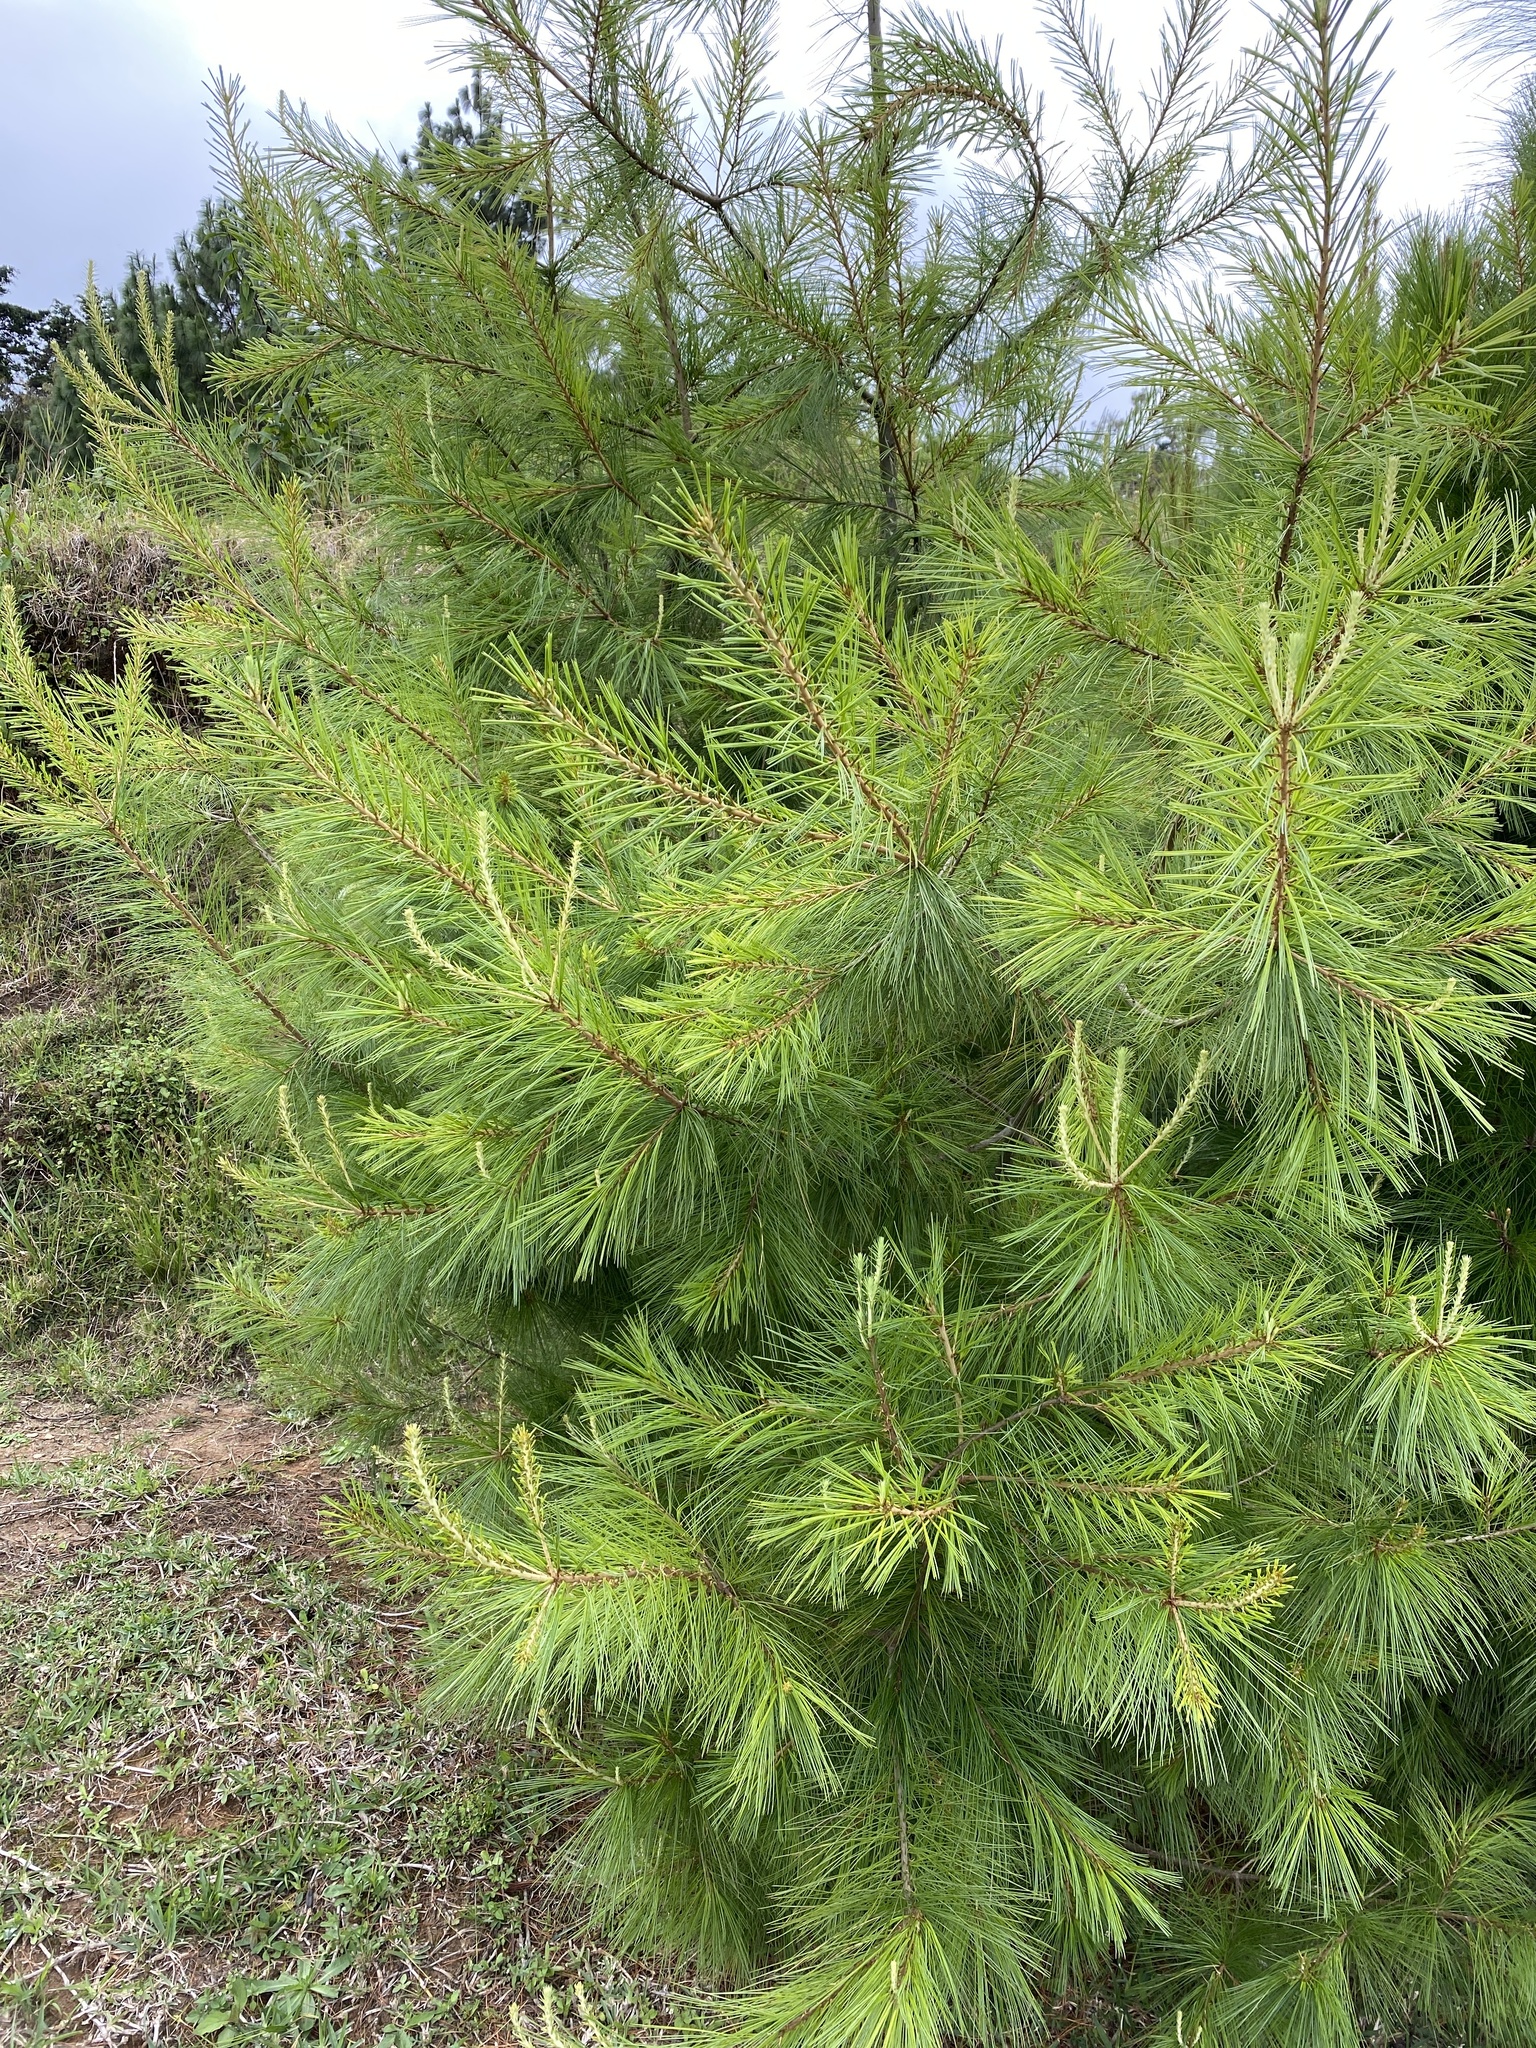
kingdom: Plantae
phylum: Tracheophyta
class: Pinopsida
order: Pinales
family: Pinaceae
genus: Pinus
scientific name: Pinus strobus
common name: Weymouth pine
